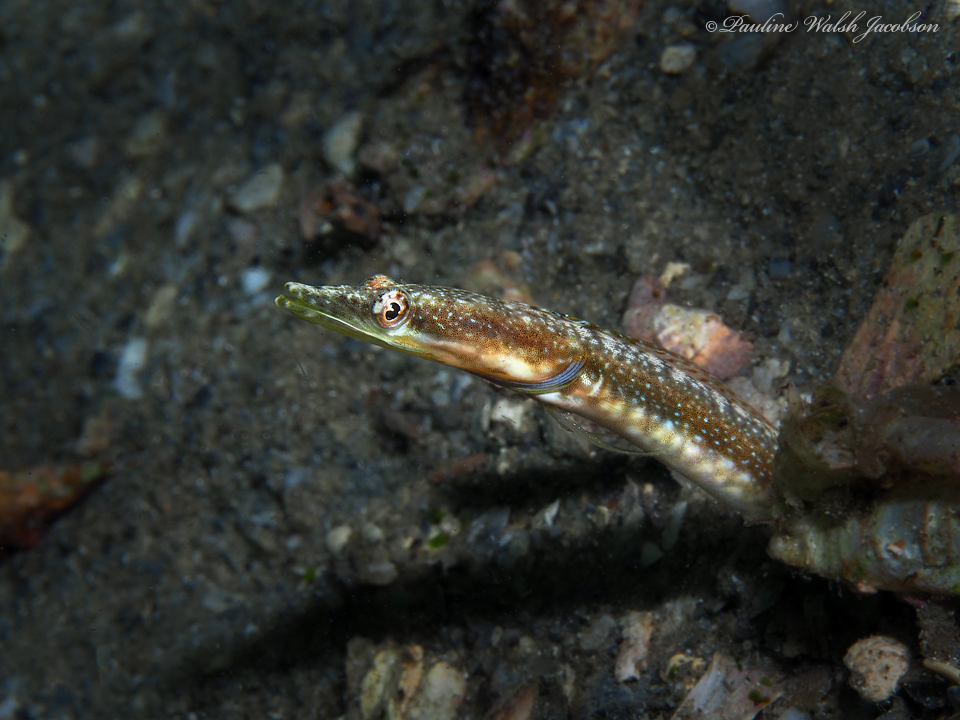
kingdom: Animalia
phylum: Chordata
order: Perciformes
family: Chaenopsidae
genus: Chaenopsis
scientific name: Chaenopsis ocellata
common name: Bluethroat pikeblenny
